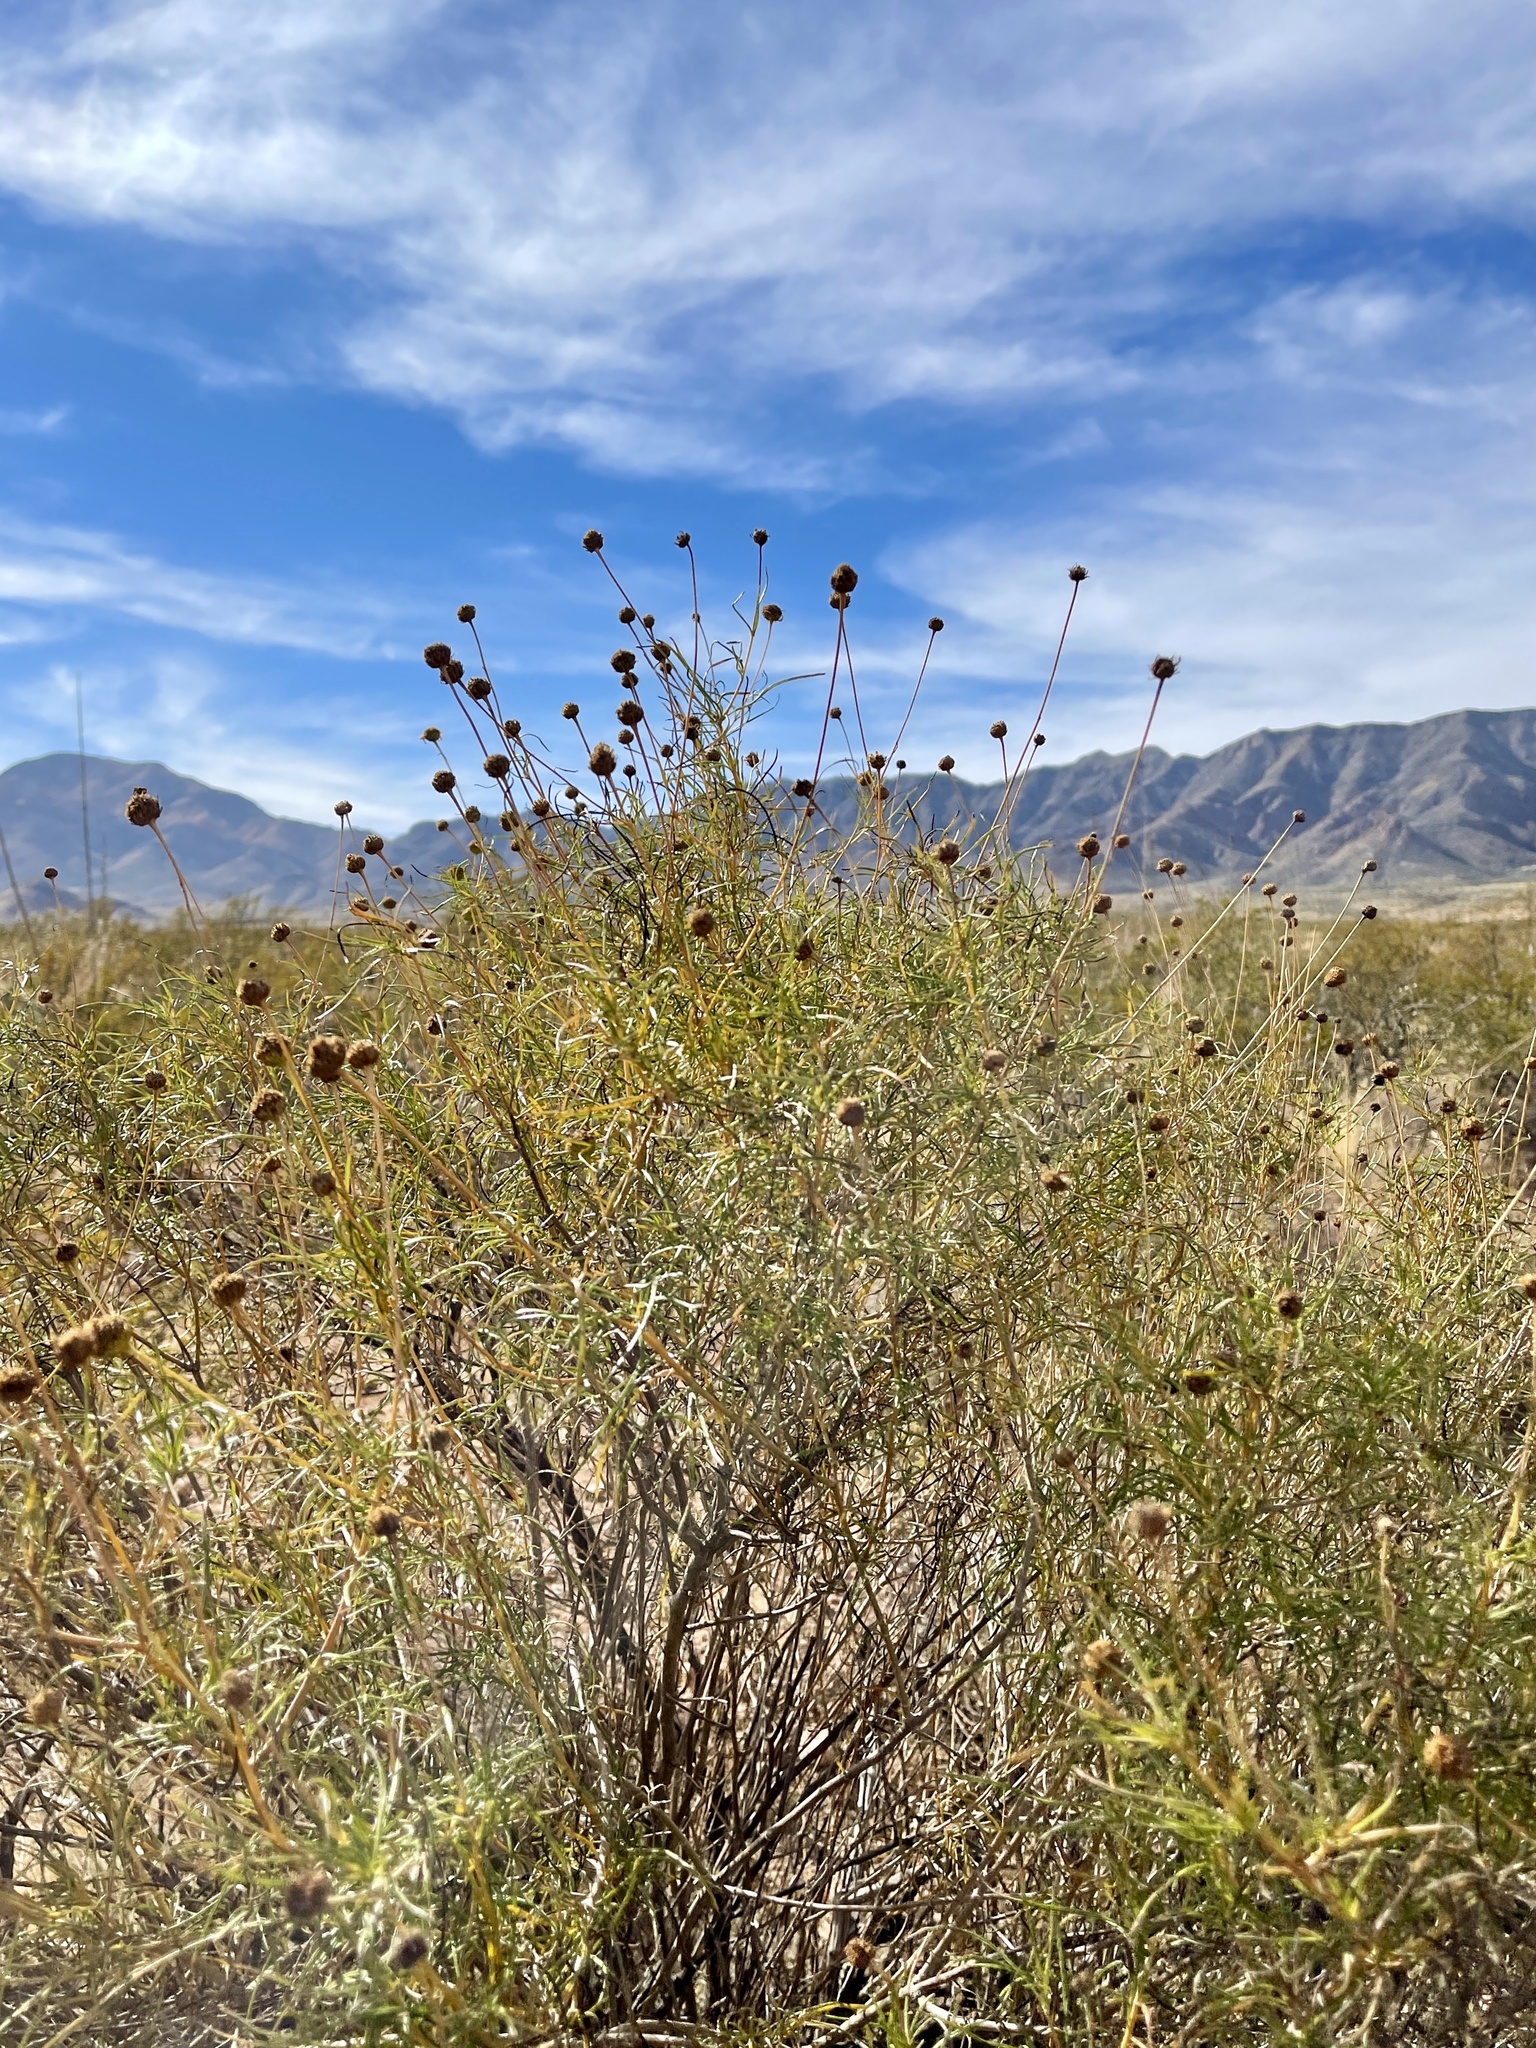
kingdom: Plantae
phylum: Tracheophyta
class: Magnoliopsida
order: Asterales
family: Asteraceae
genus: Sidneya
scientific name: Sidneya tenuifolia
